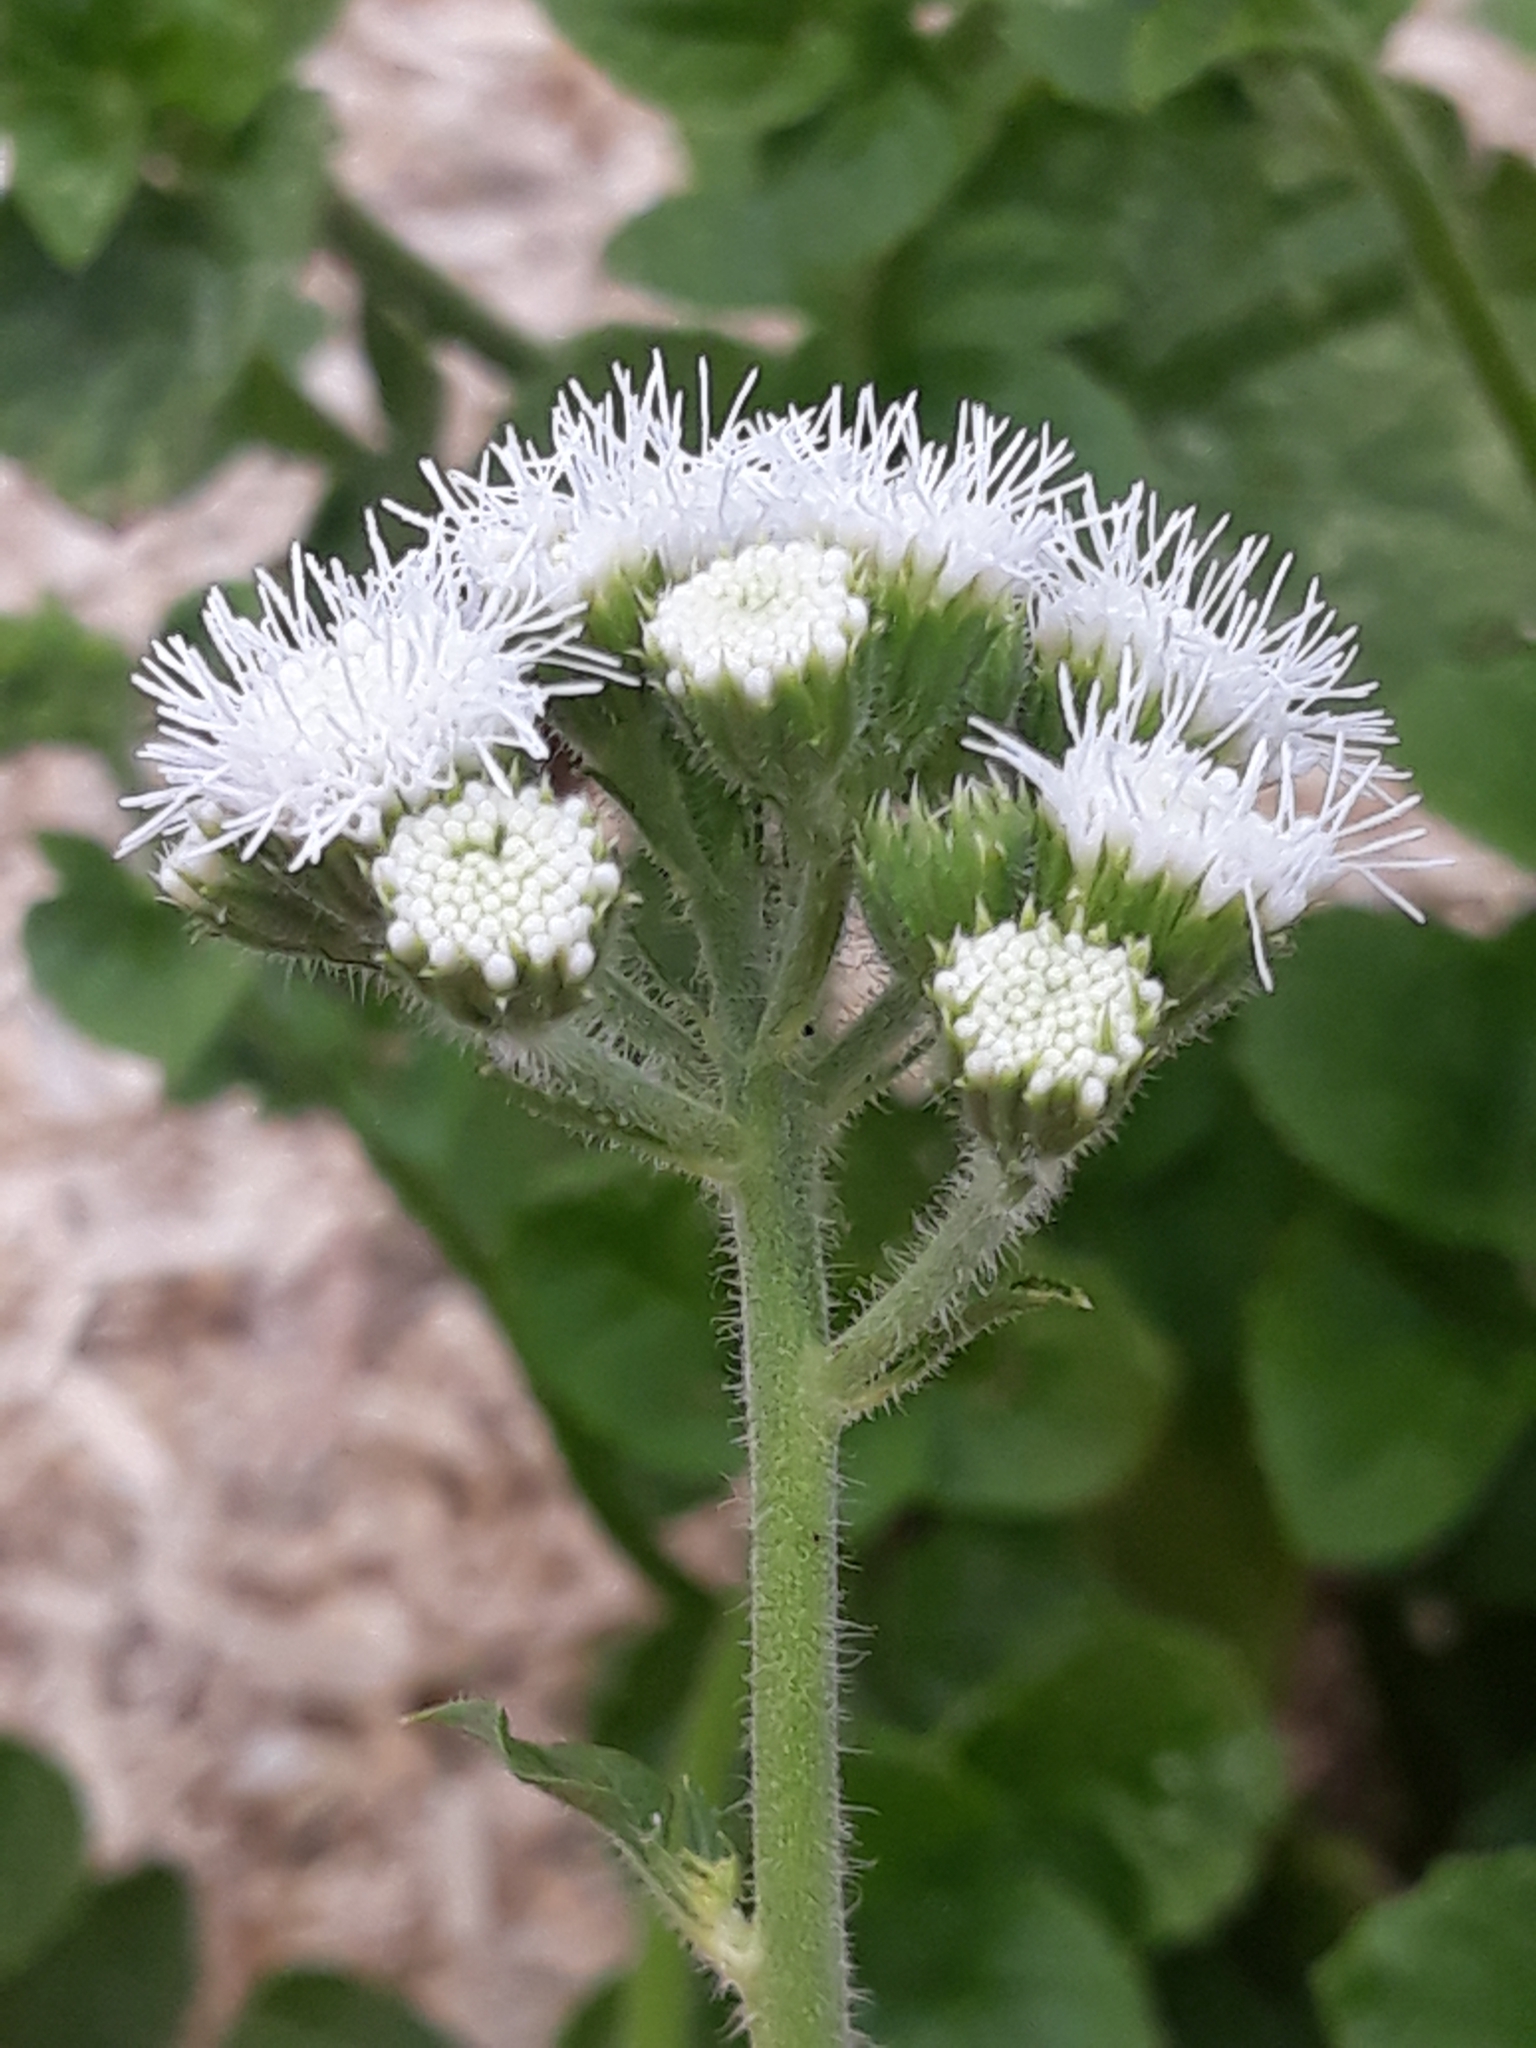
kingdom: Plantae
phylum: Tracheophyta
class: Magnoliopsida
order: Asterales
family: Asteraceae
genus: Petasites
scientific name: Petasites albus
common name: White butterbur
